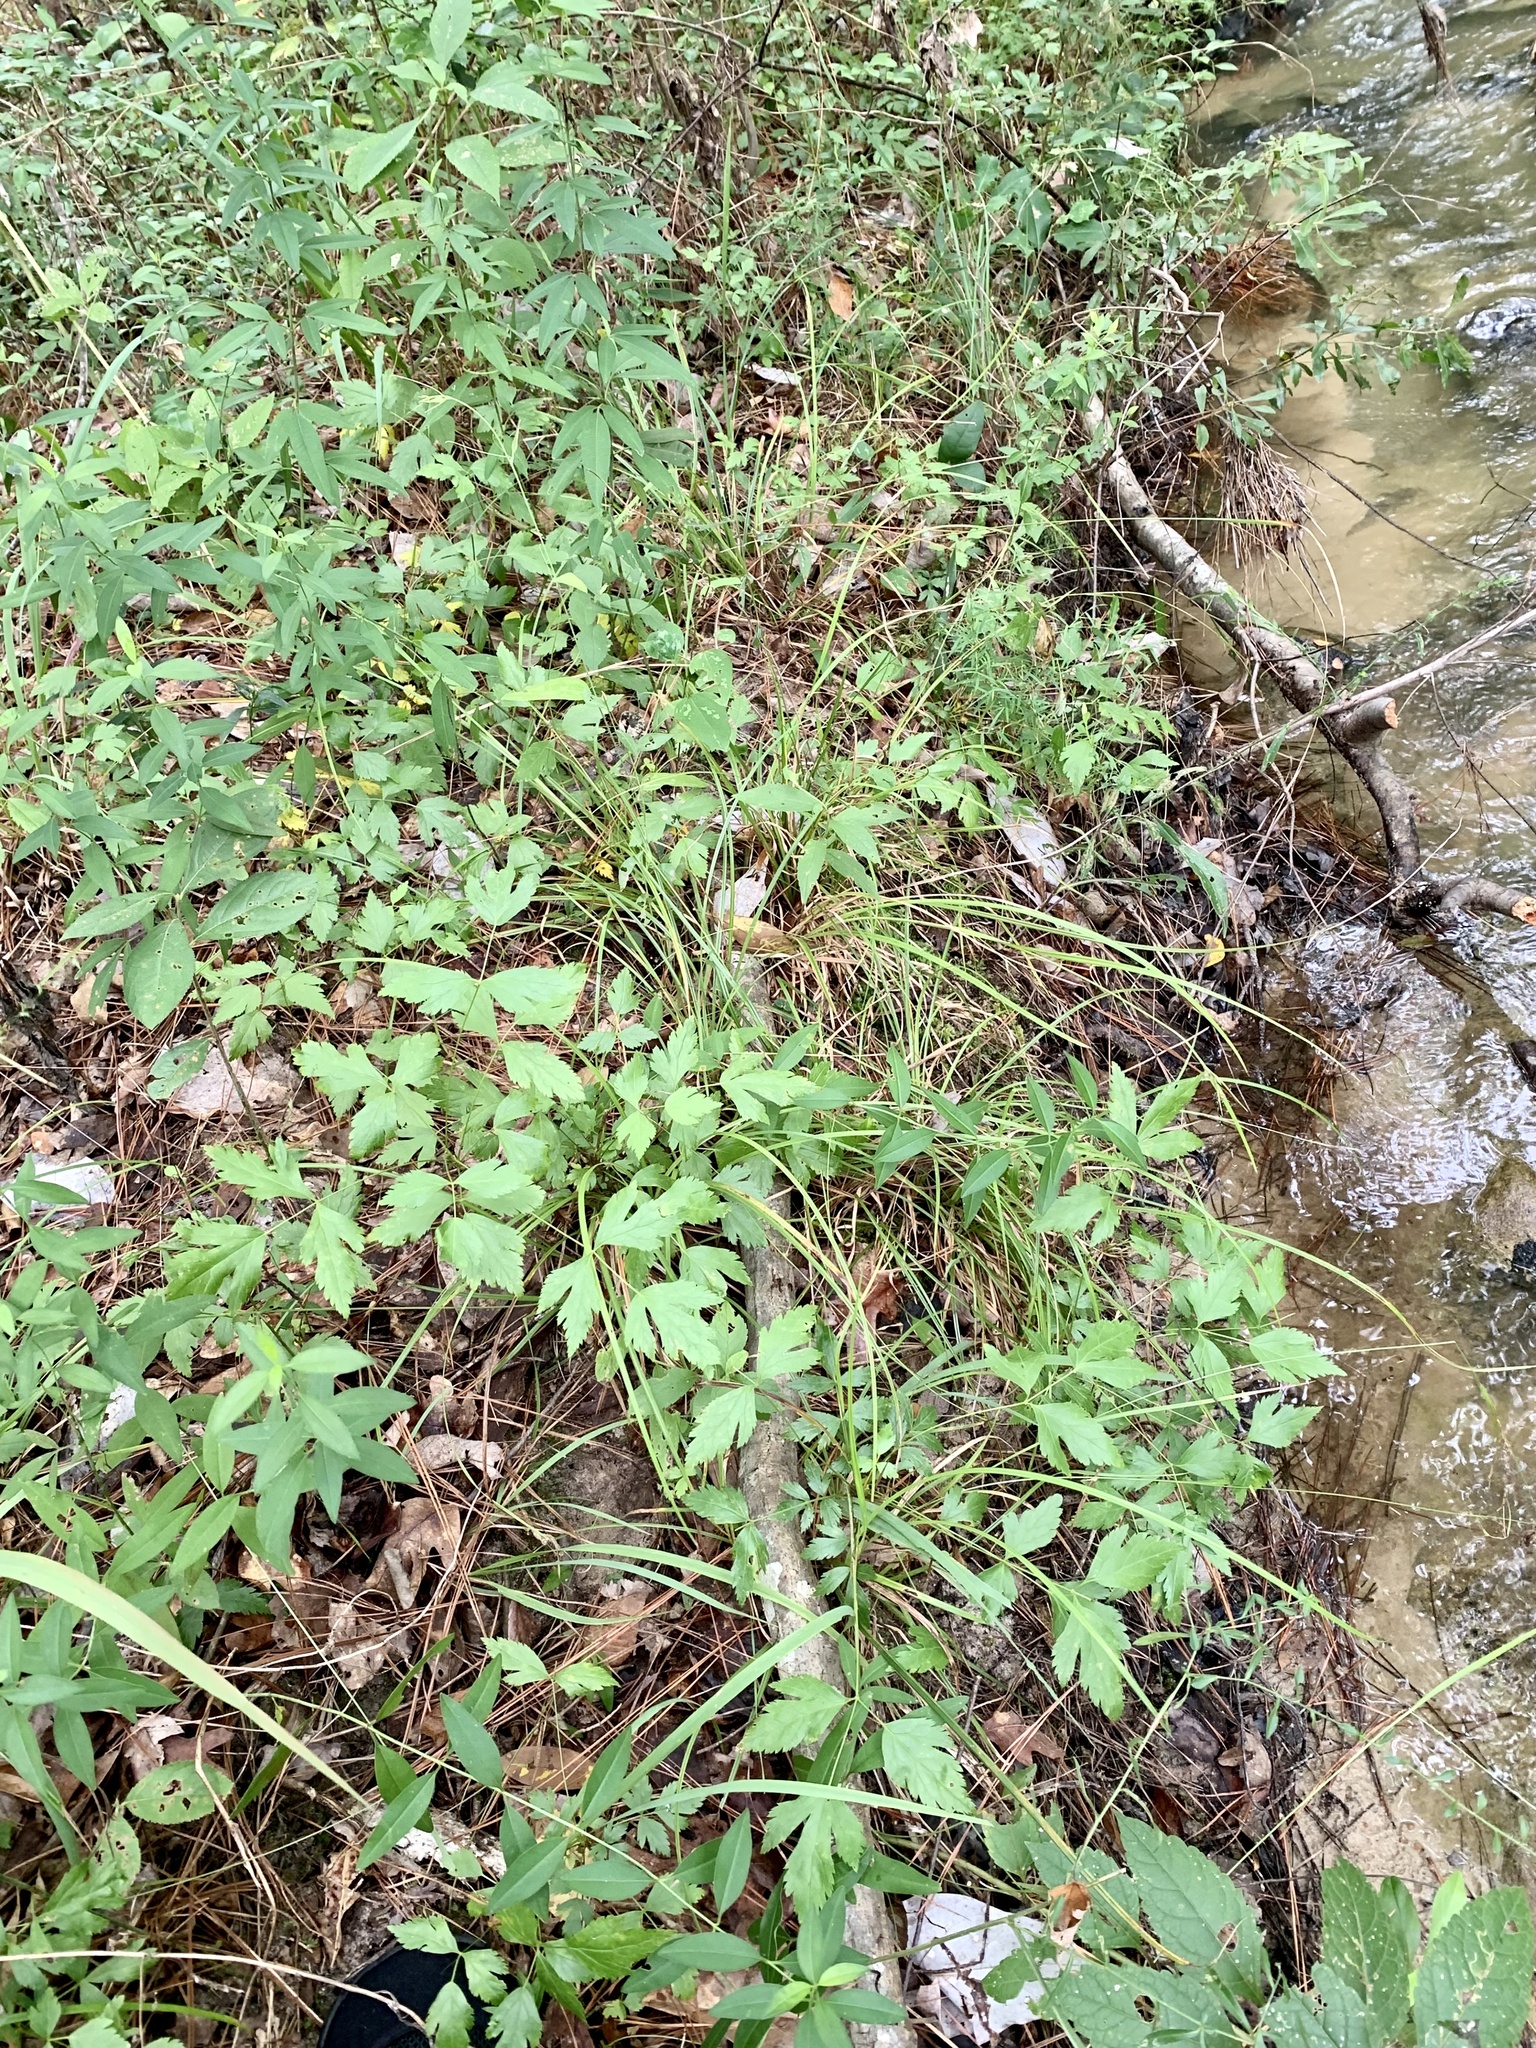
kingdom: Plantae
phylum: Tracheophyta
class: Magnoliopsida
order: Ranunculales
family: Ranunculaceae
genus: Xanthorhiza
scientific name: Xanthorhiza simplicissima
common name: Yellowroot
